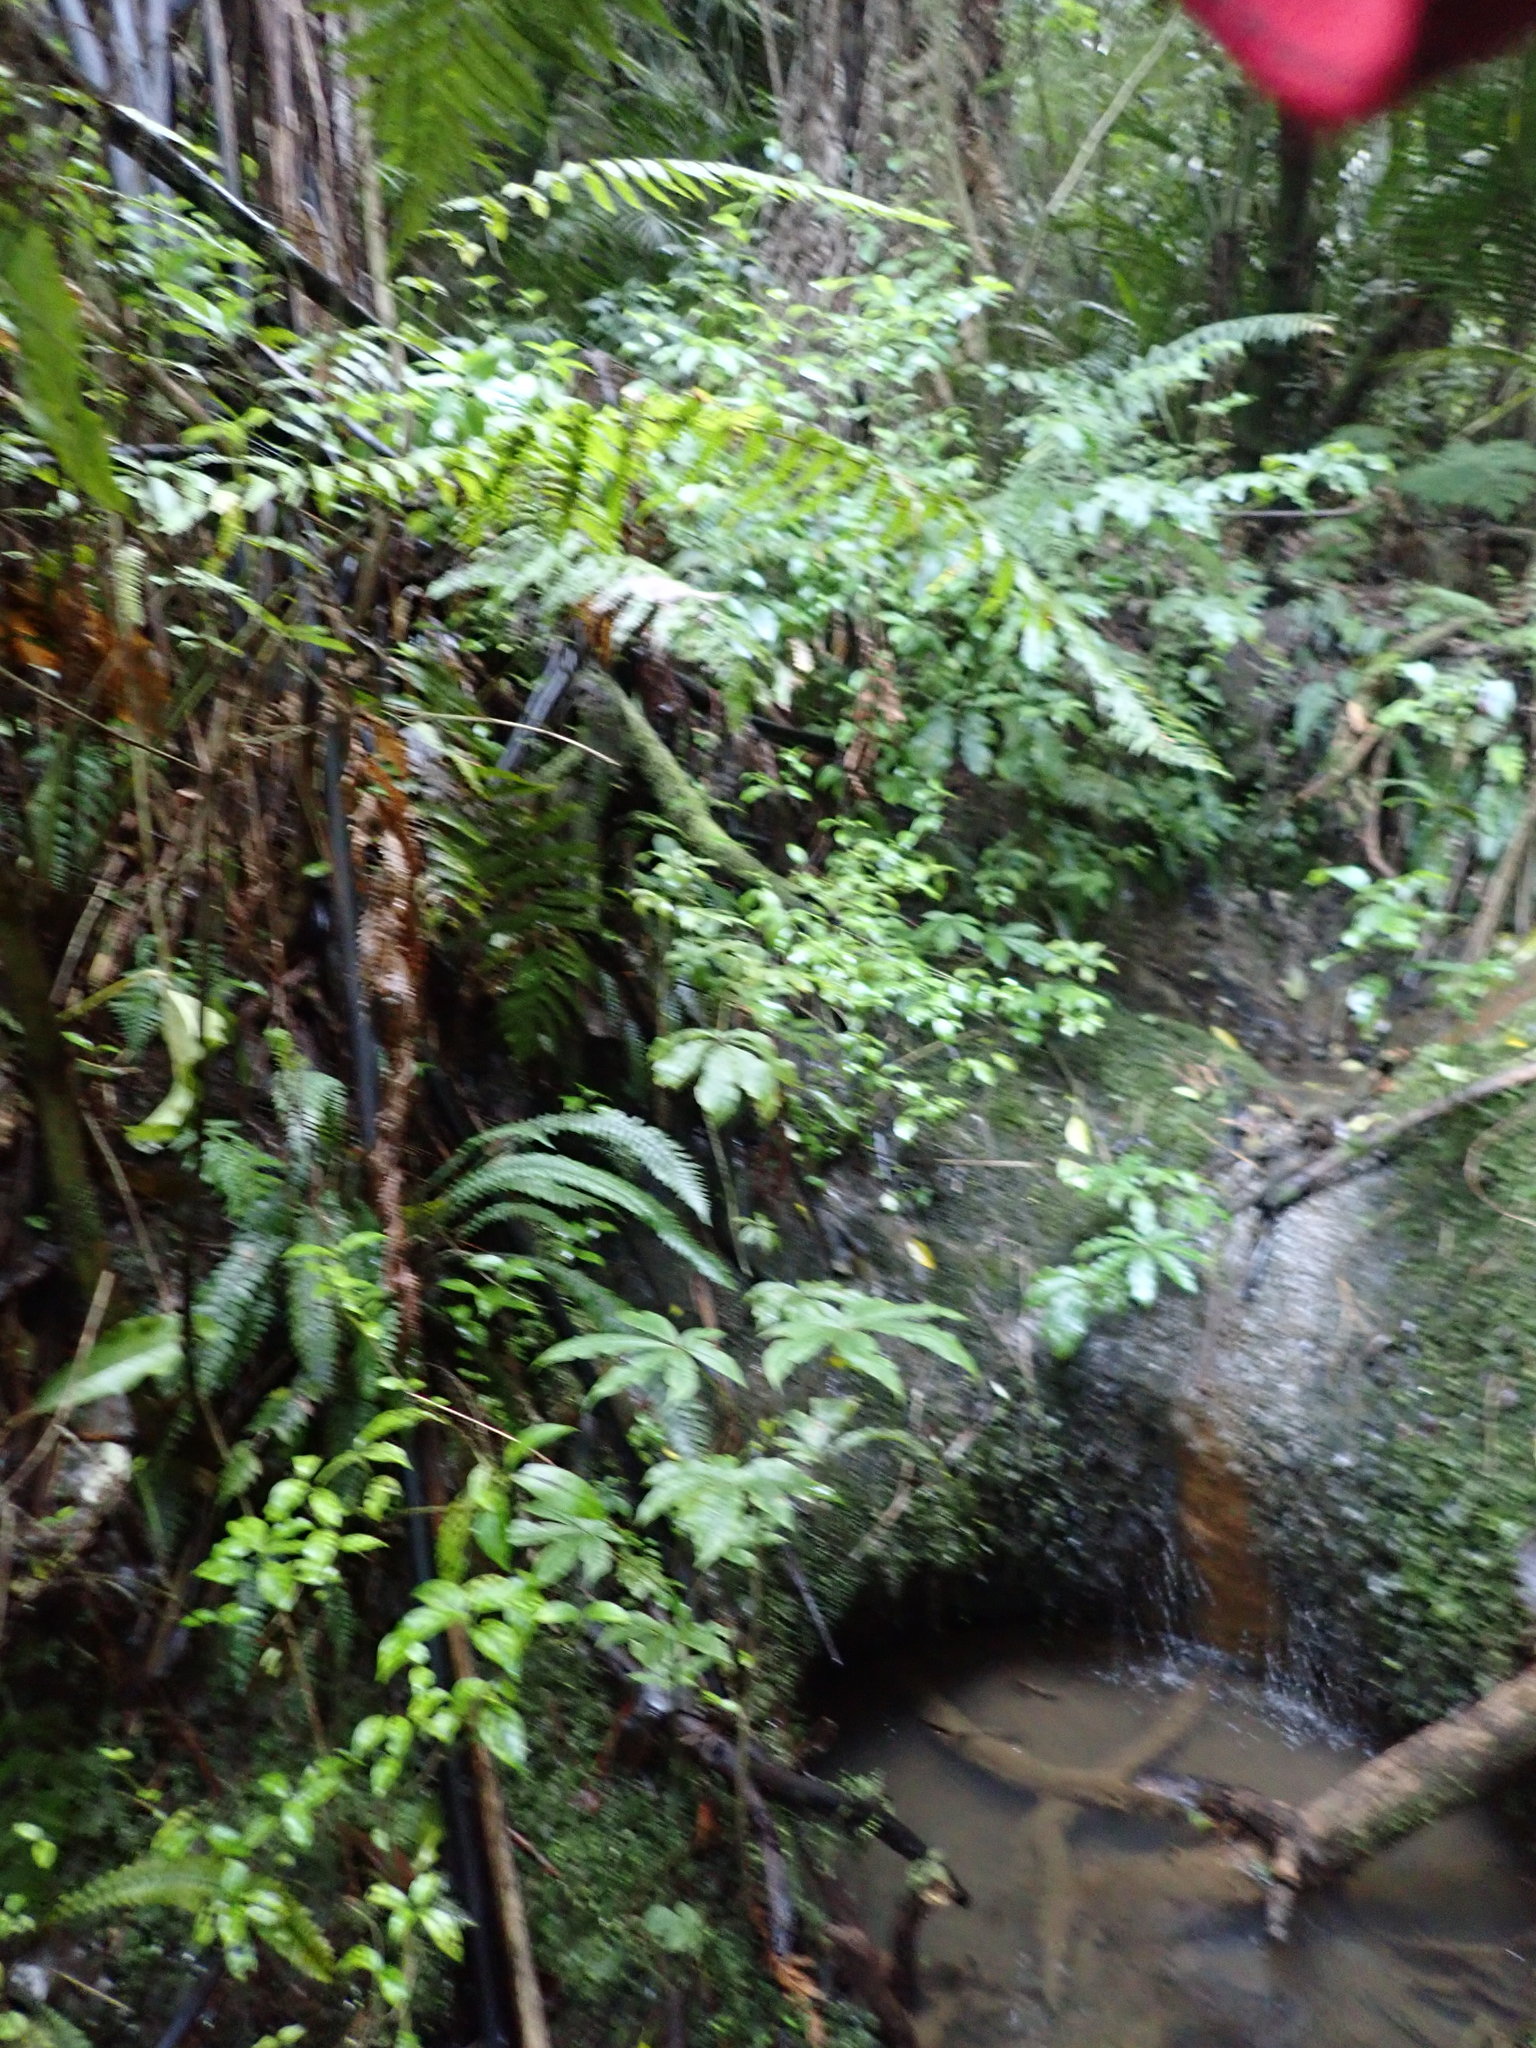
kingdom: Plantae
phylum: Tracheophyta
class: Polypodiopsida
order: Polypodiales
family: Blechnaceae
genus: Austroblechnum
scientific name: Austroblechnum lanceolatum
